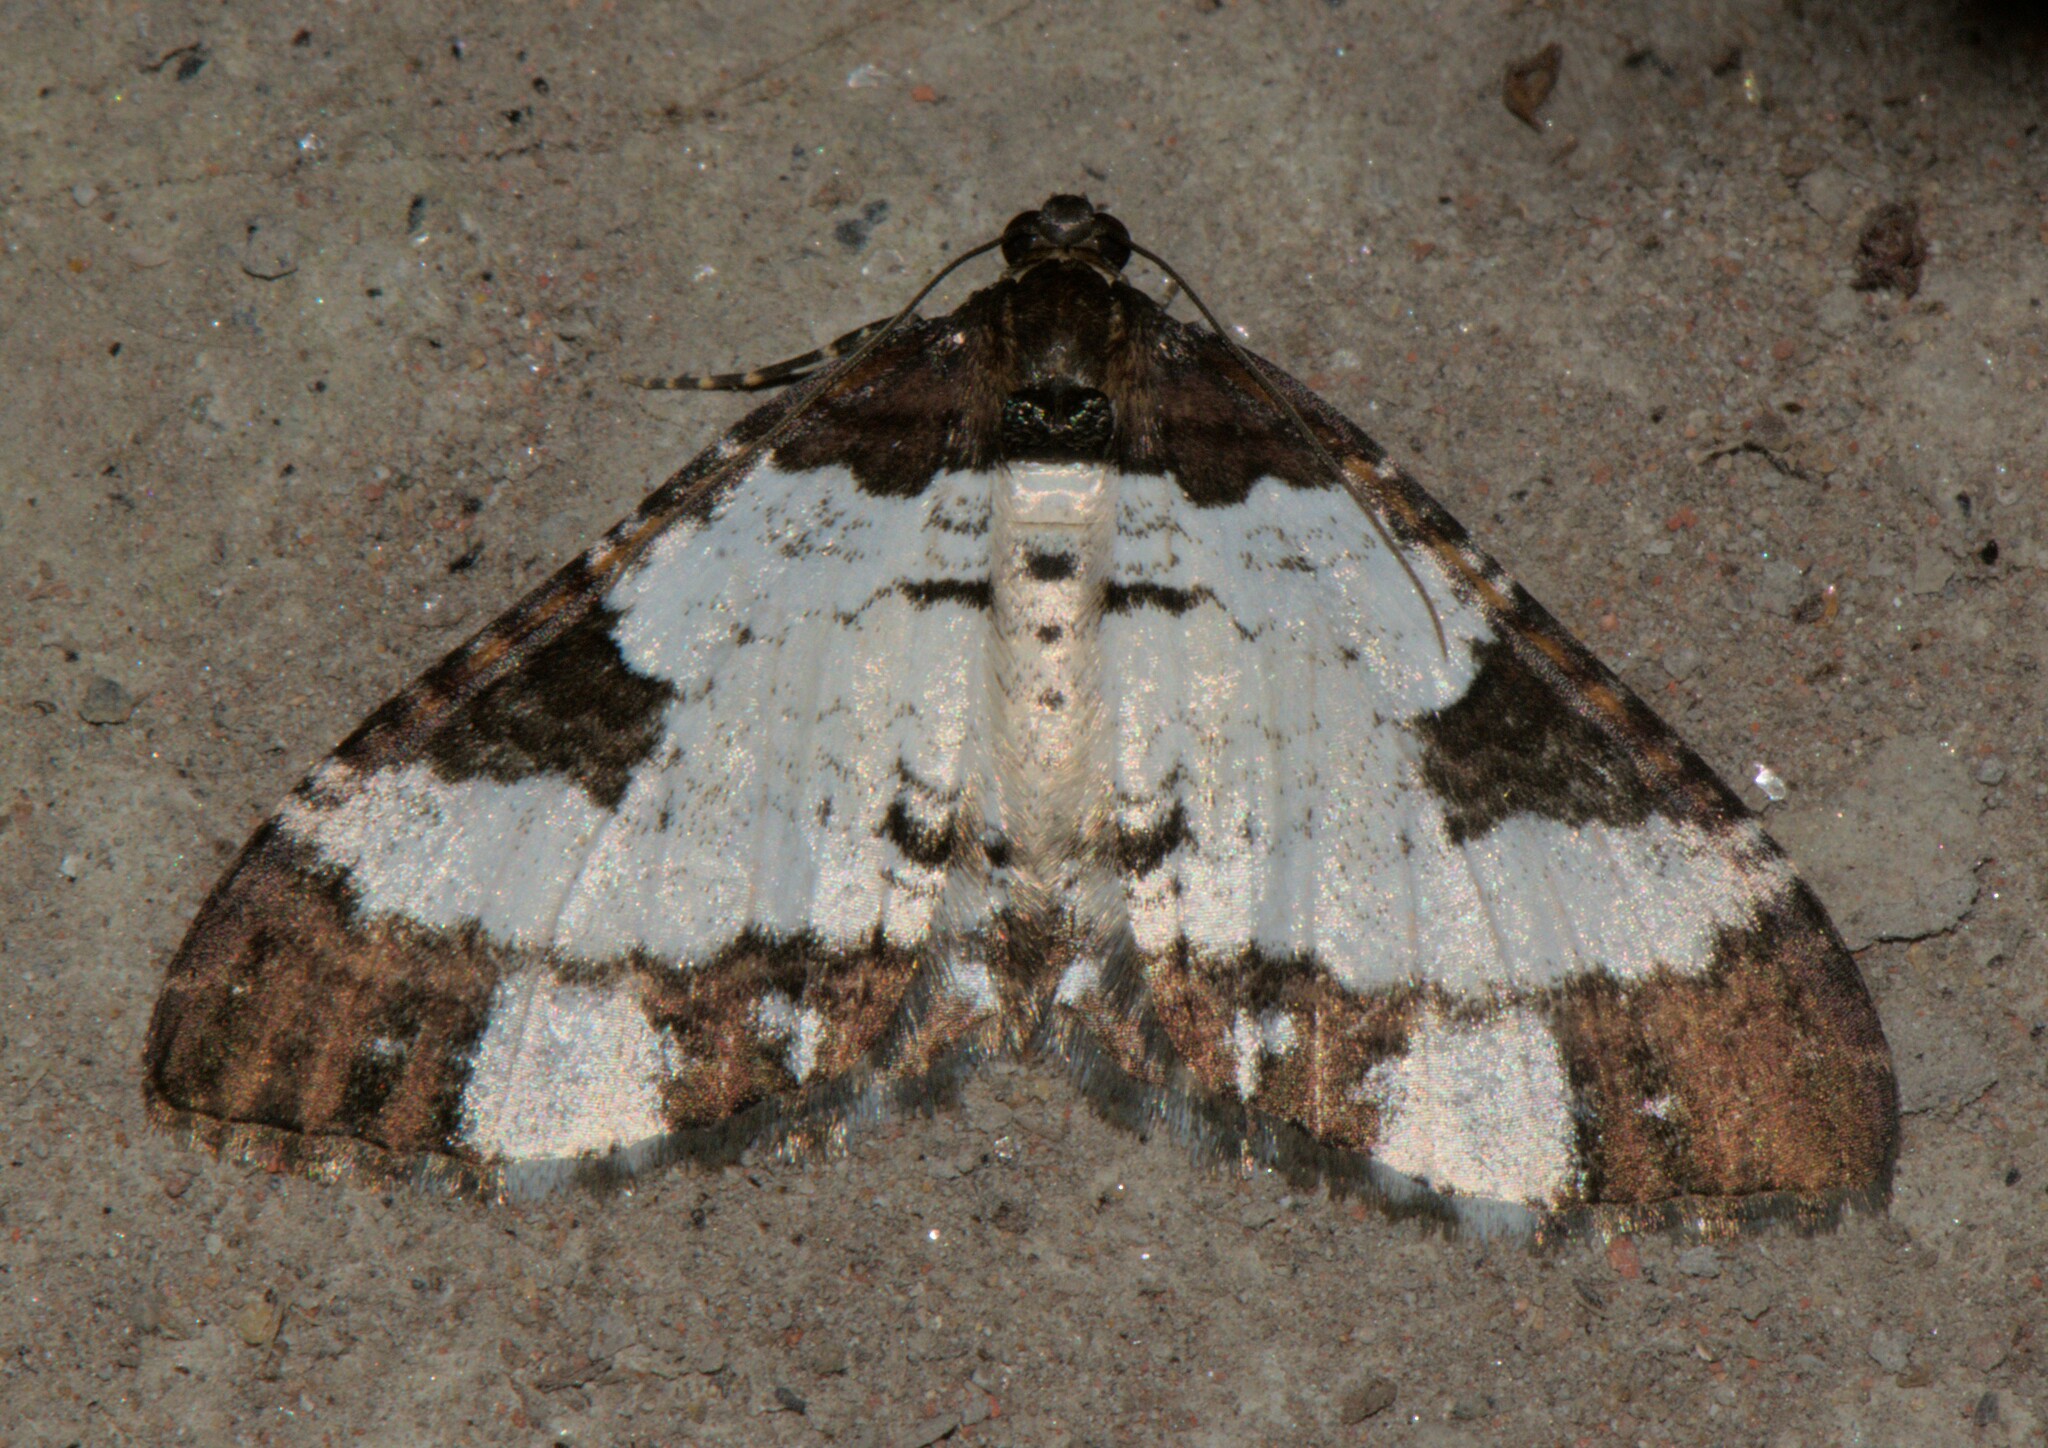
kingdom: Animalia
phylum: Arthropoda
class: Insecta
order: Lepidoptera
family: Geometridae
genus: Melanthia
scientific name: Melanthia procellata
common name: Pretty chalk carpet
